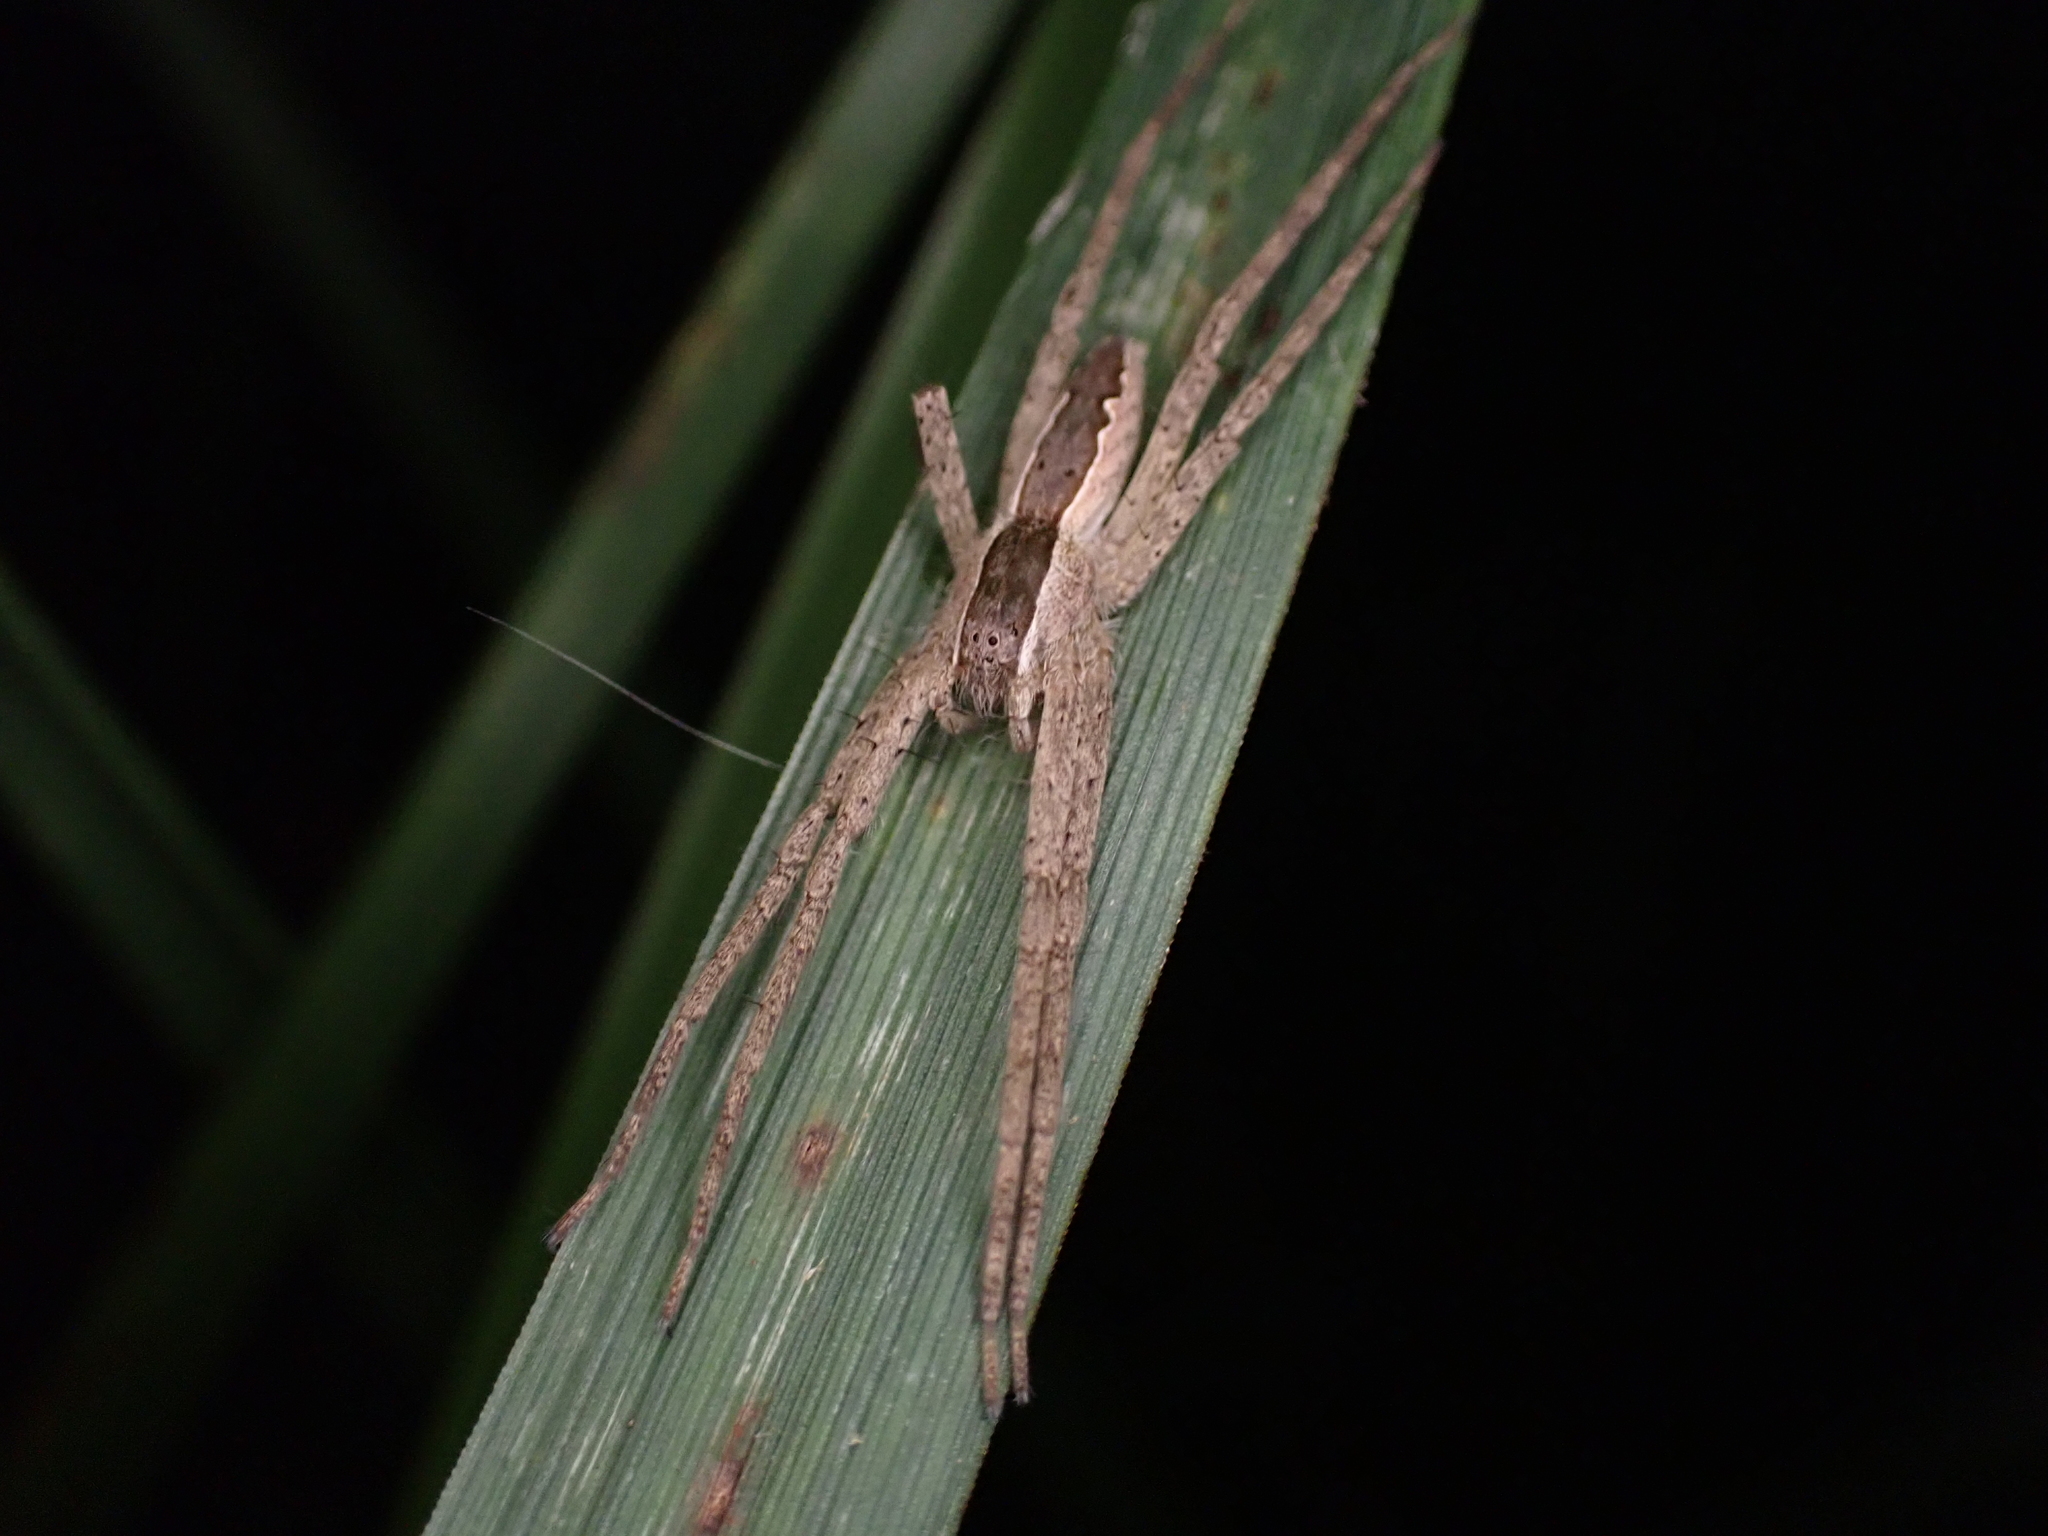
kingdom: Animalia
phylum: Arthropoda
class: Arachnida
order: Araneae
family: Pisauridae
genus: Pisaurina
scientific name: Pisaurina mira
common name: American nursery web spider
